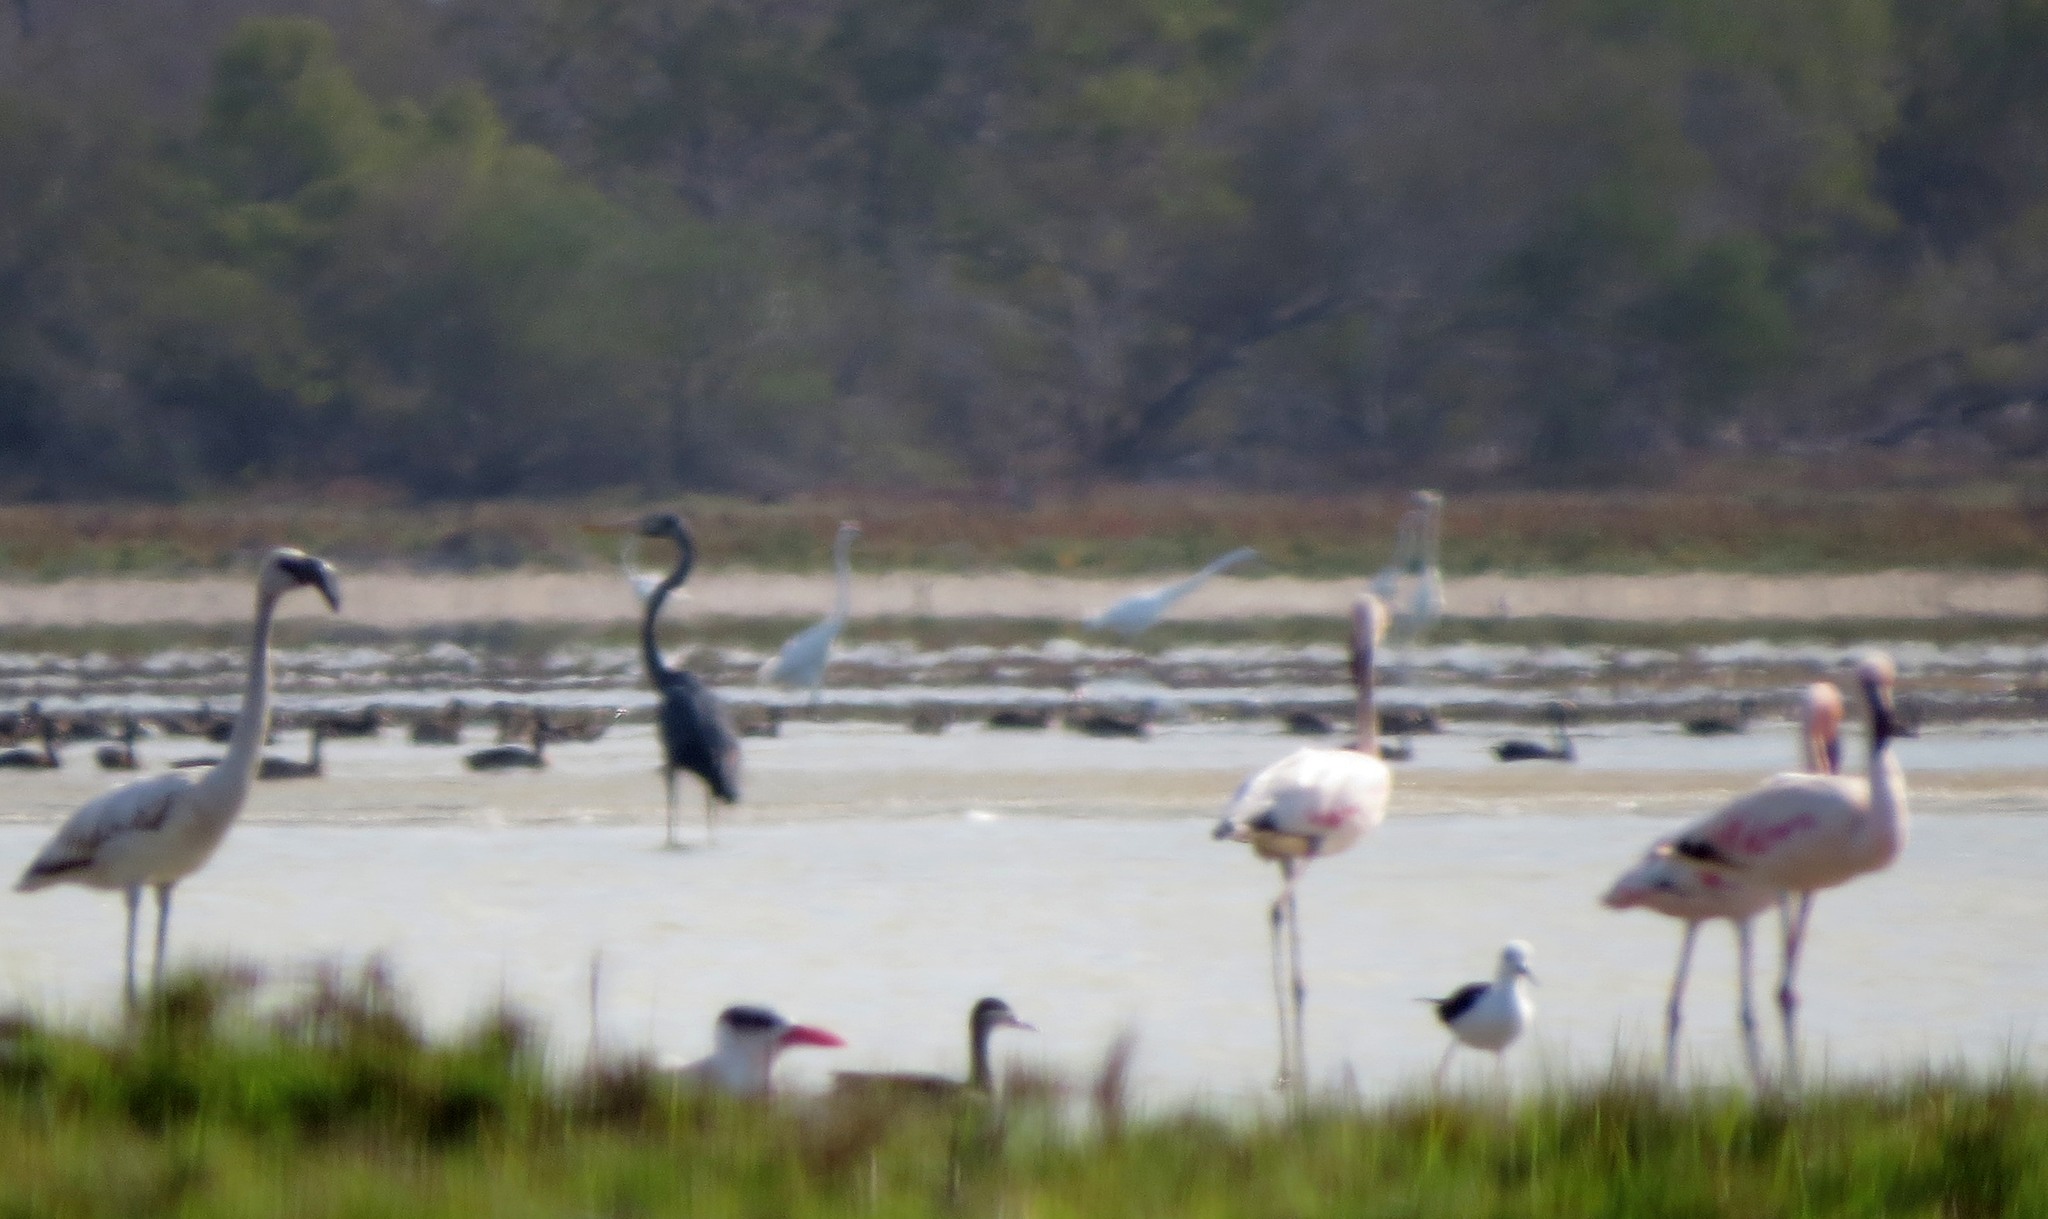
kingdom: Animalia
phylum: Chordata
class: Aves
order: Phoenicopteriformes
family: Phoenicopteridae
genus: Phoeniconaias
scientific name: Phoeniconaias minor
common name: Lesser flamingo
